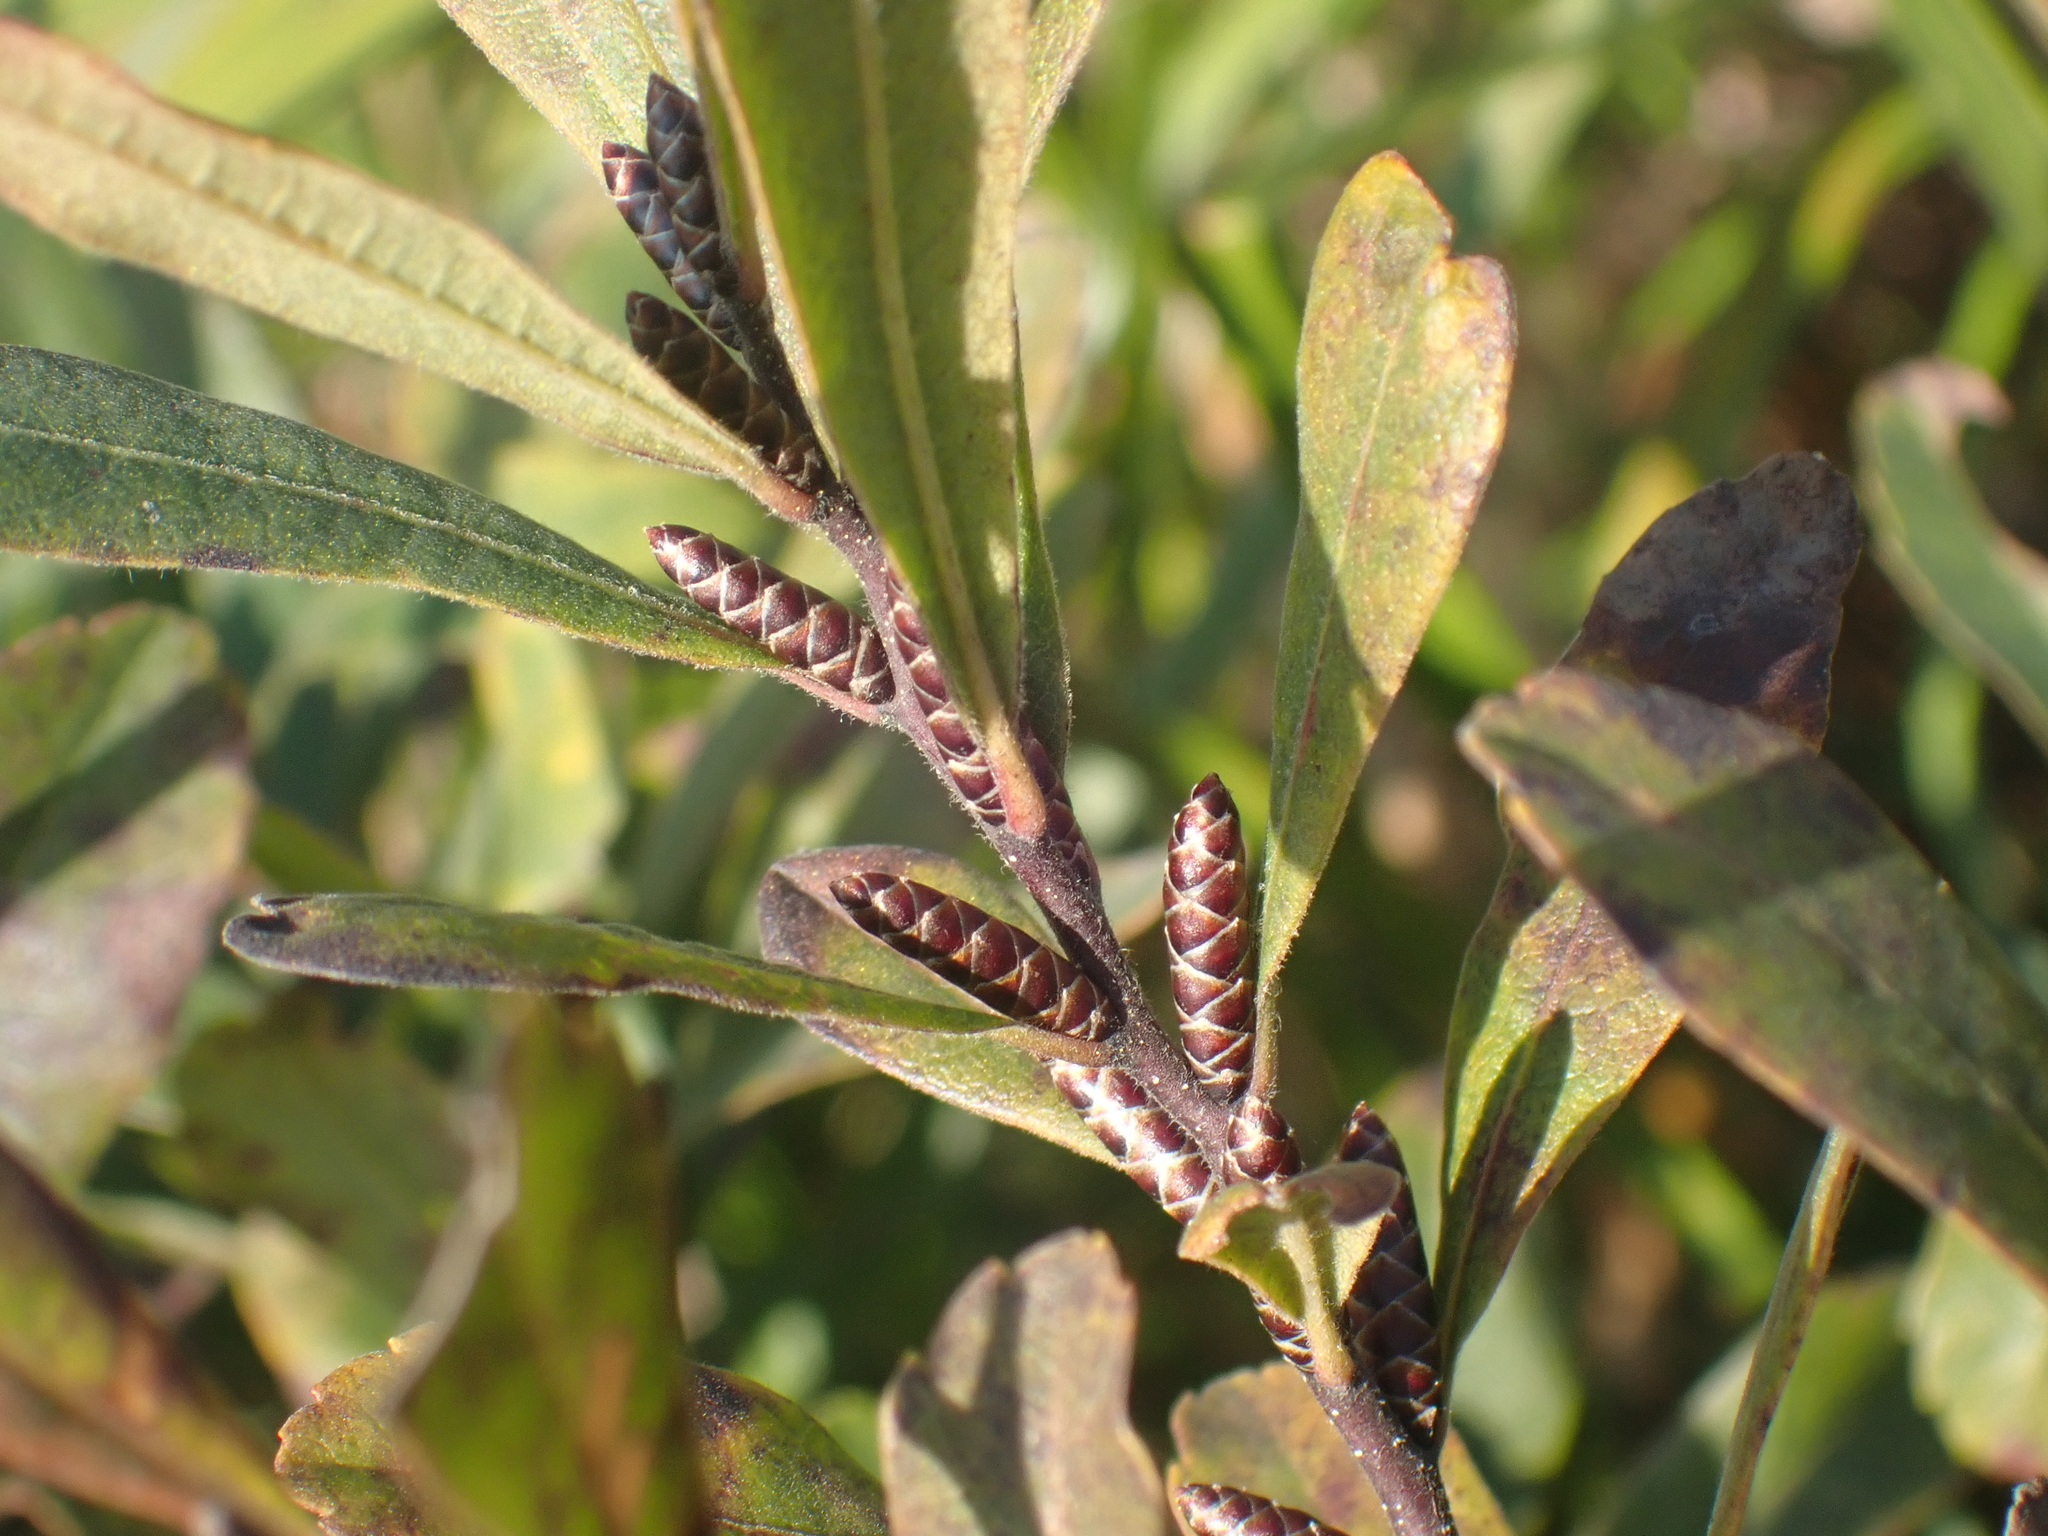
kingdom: Plantae
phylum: Tracheophyta
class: Magnoliopsida
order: Fagales
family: Myricaceae
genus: Myrica
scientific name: Myrica gale
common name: Sweet gale
